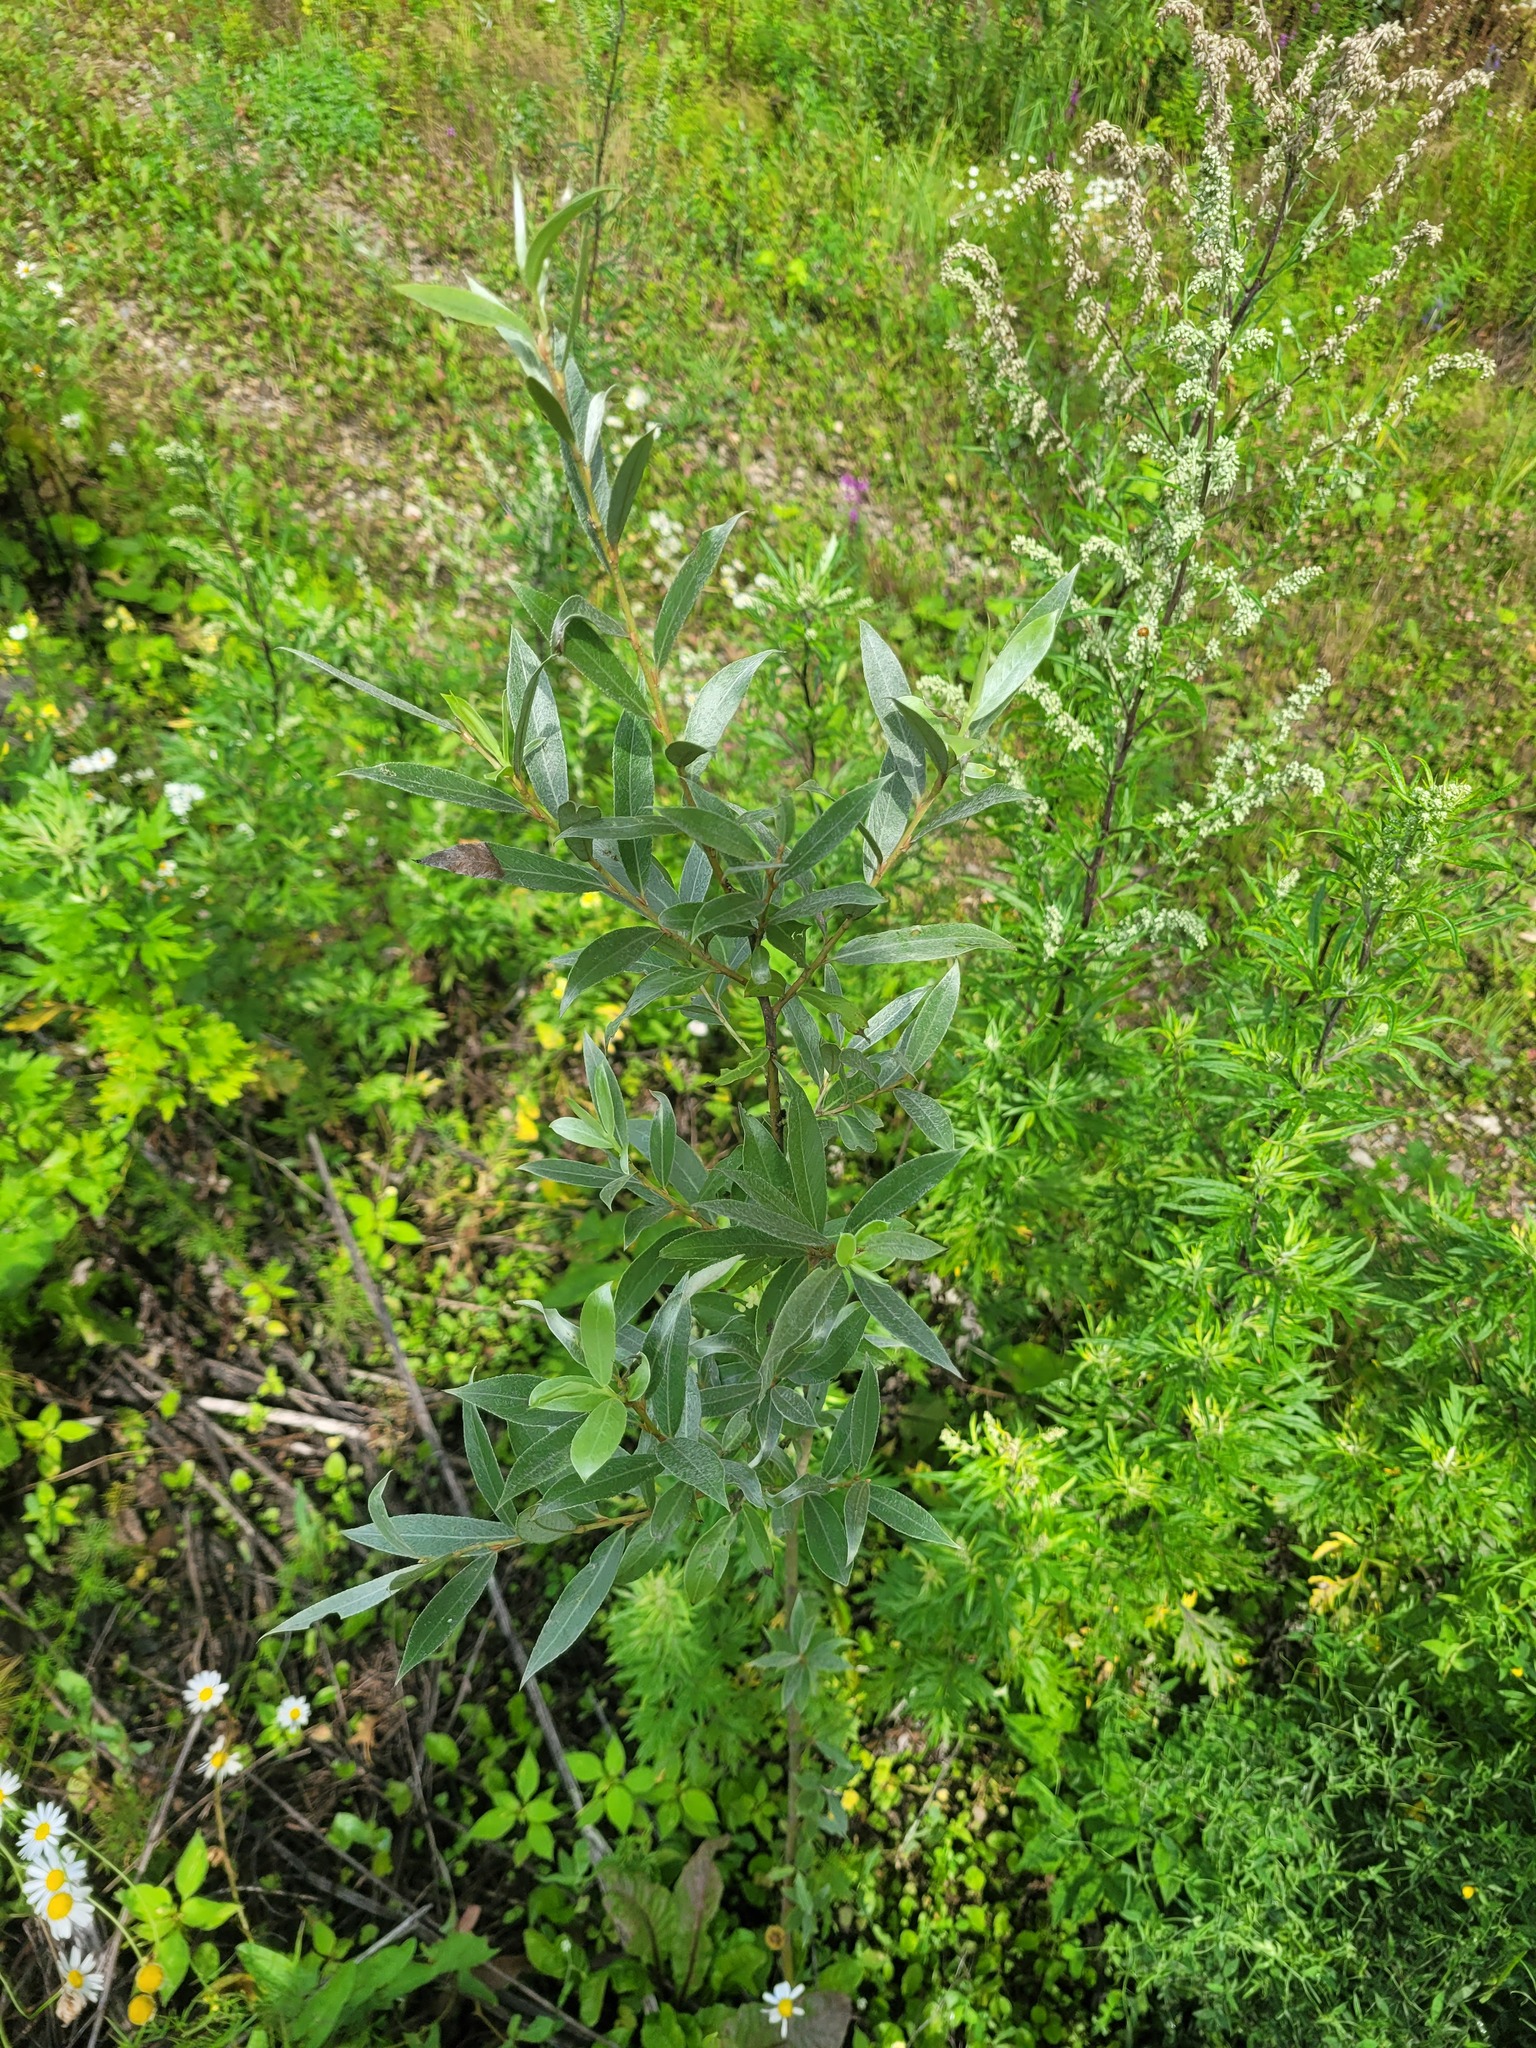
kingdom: Plantae
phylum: Tracheophyta
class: Magnoliopsida
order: Malpighiales
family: Salicaceae
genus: Salix
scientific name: Salix alba
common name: White willow
